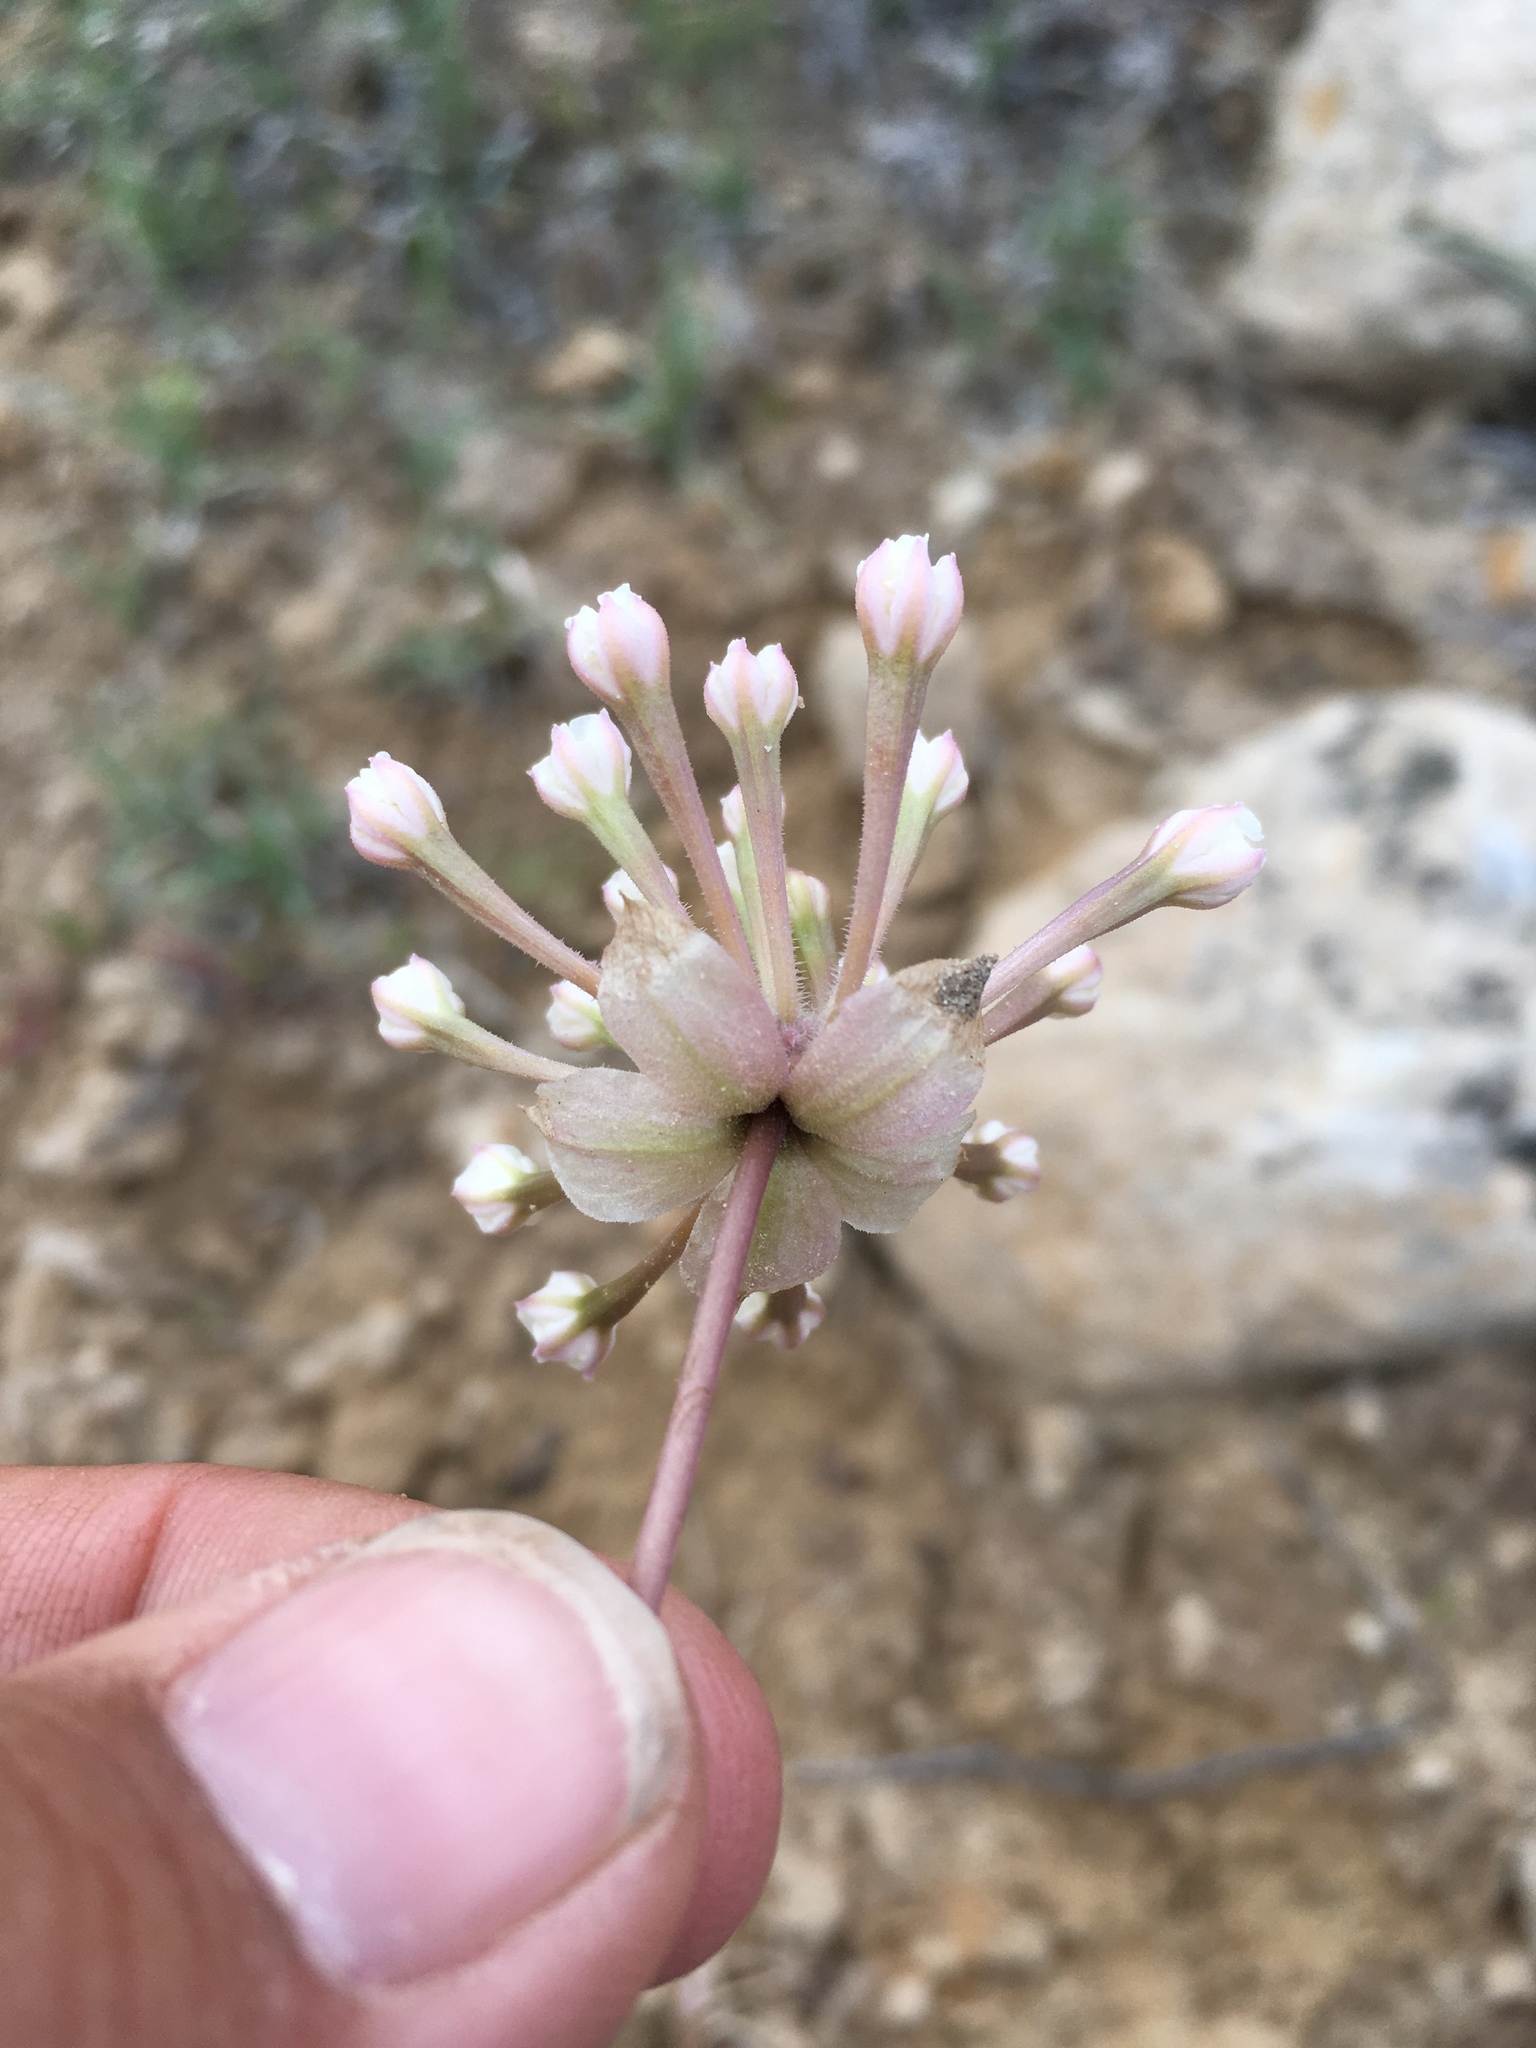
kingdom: Plantae
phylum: Tracheophyta
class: Magnoliopsida
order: Caryophyllales
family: Nyctaginaceae
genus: Abronia
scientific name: Abronia elliptica
